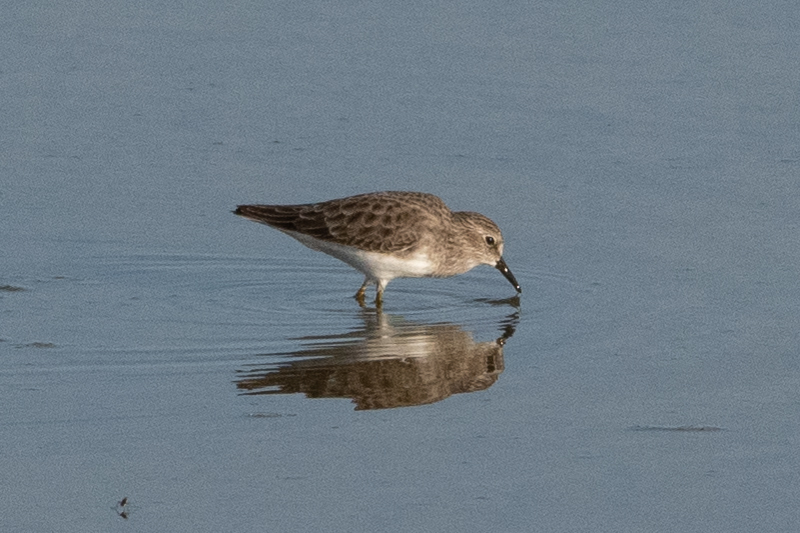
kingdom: Animalia
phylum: Chordata
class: Aves
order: Charadriiformes
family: Scolopacidae
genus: Calidris
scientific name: Calidris minutilla
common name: Least sandpiper
